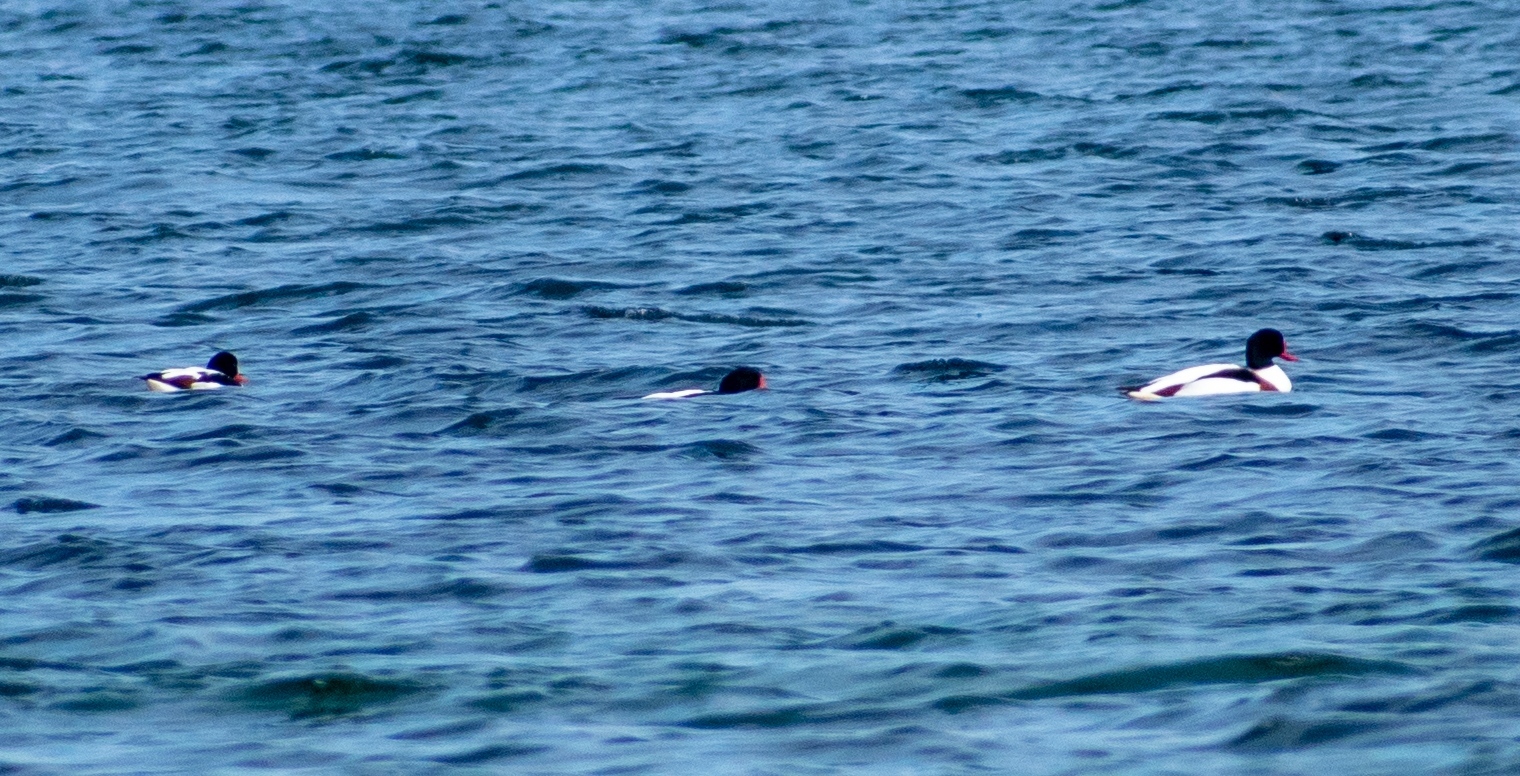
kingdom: Animalia
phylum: Chordata
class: Aves
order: Anseriformes
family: Anatidae
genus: Tadorna
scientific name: Tadorna tadorna
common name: Common shelduck
